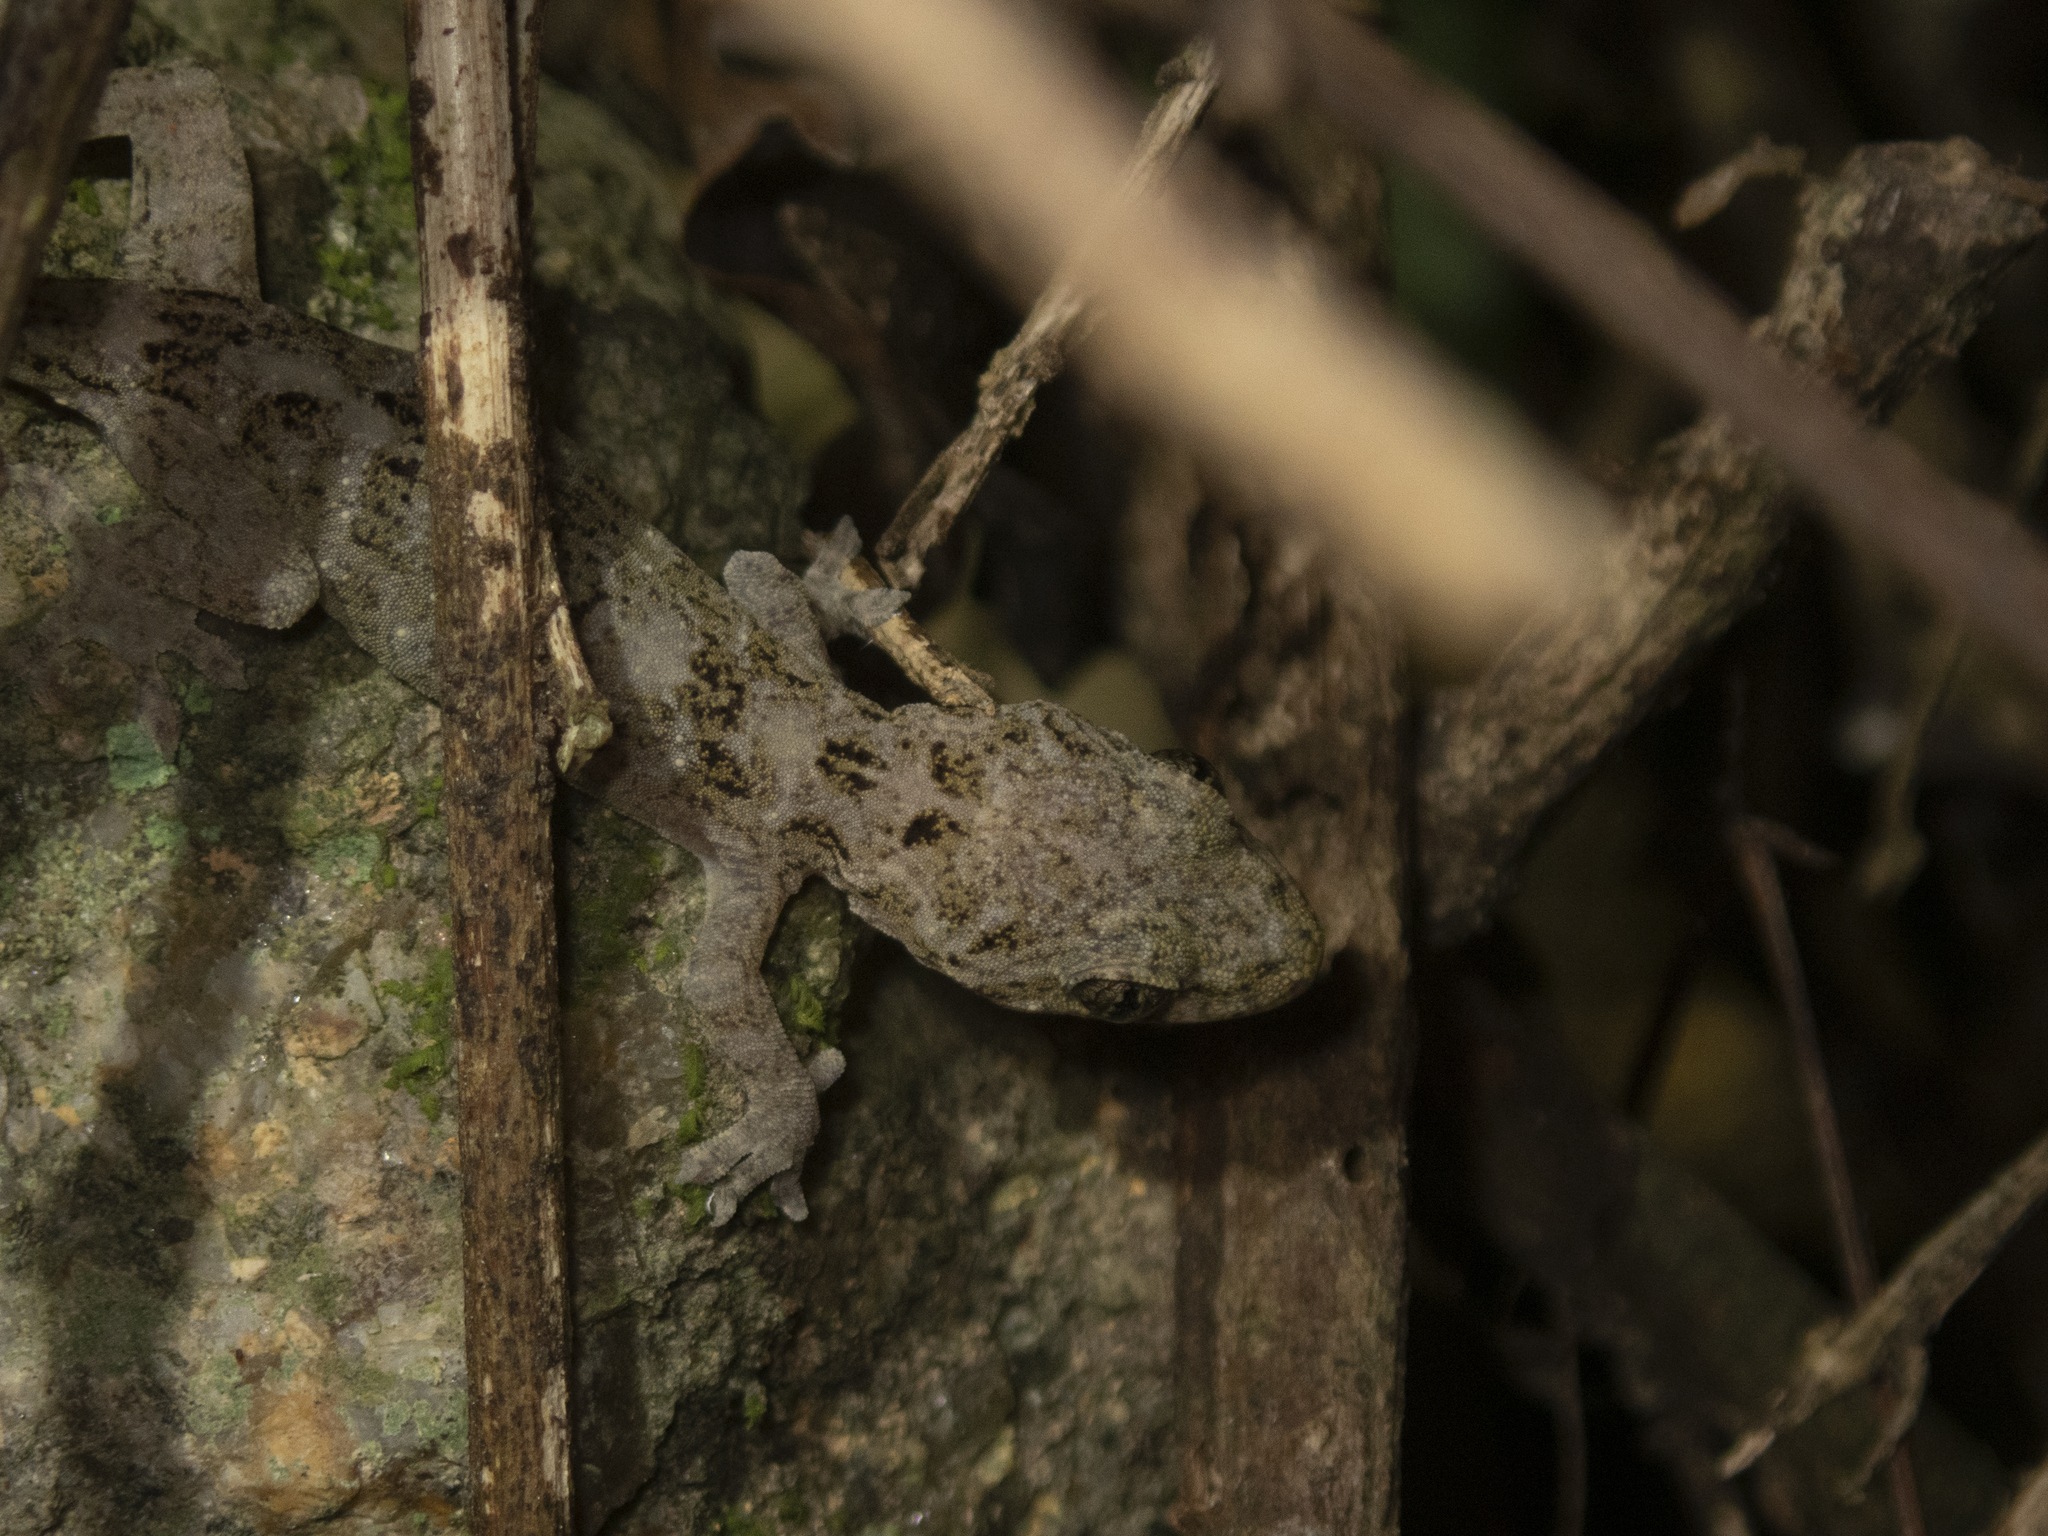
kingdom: Animalia
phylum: Chordata
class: Squamata
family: Gekkonidae
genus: Gekko
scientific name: Gekko chinensis
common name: Gray's chinese gecko
